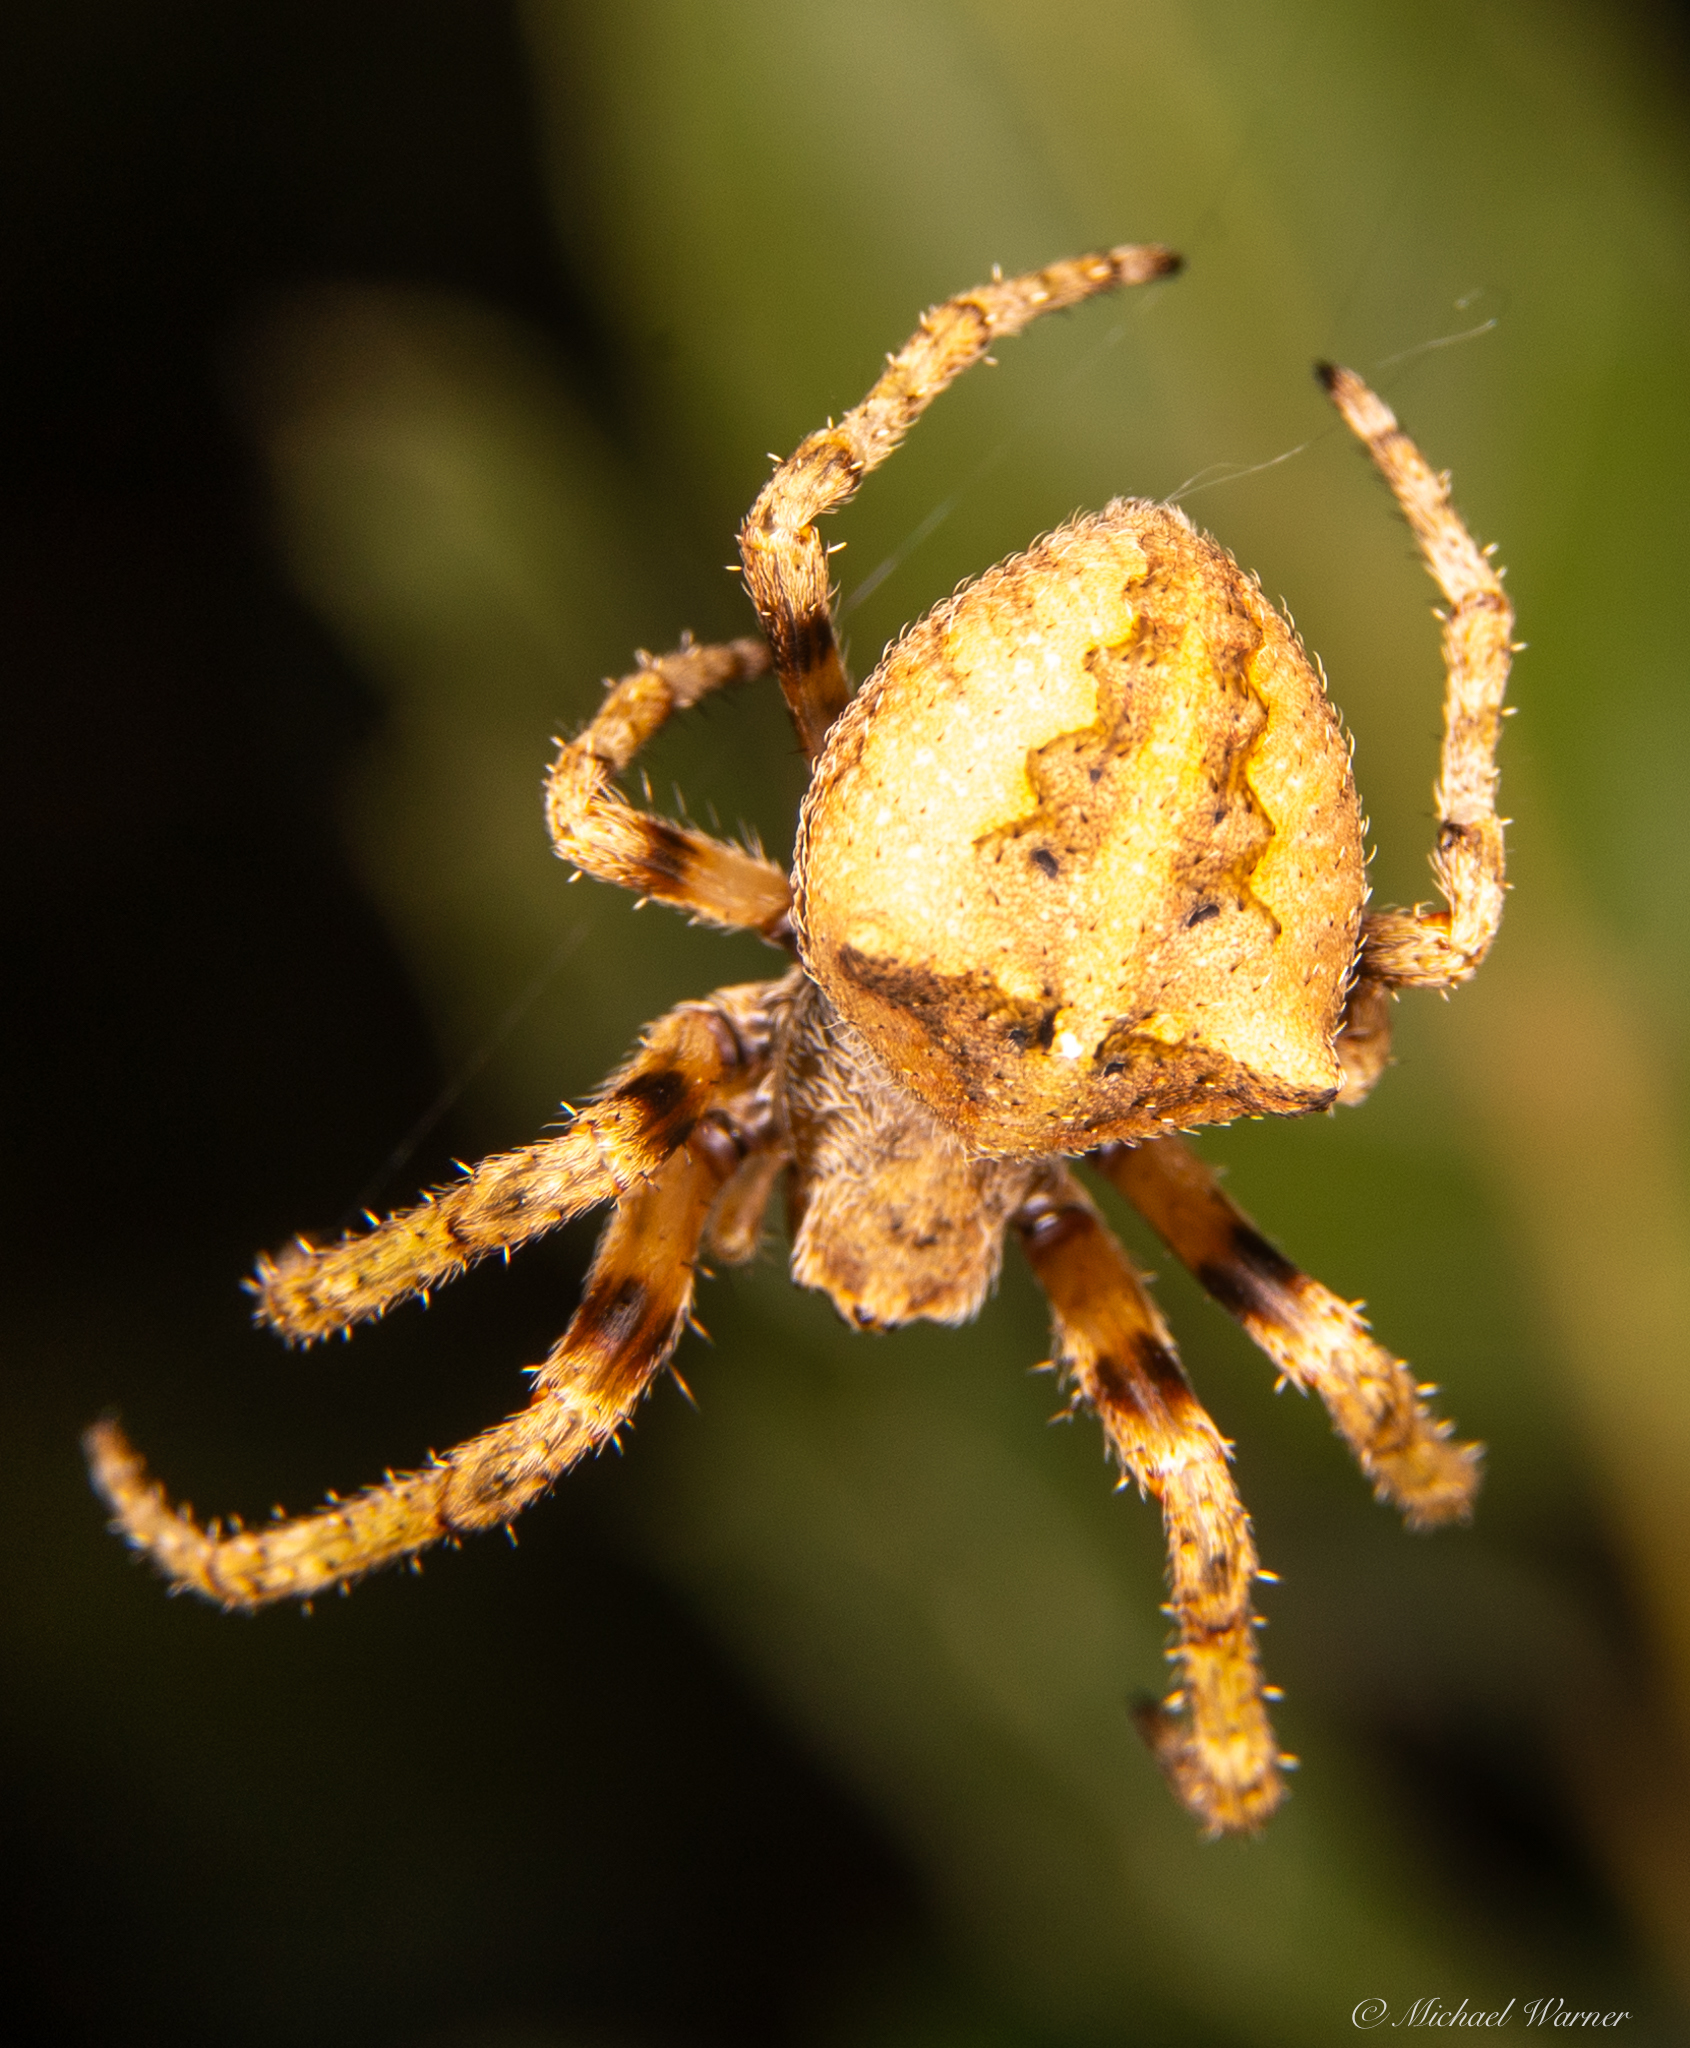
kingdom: Animalia
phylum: Arthropoda
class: Arachnida
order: Araneae
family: Araneidae
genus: Araneus
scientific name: Araneus andrewsi
